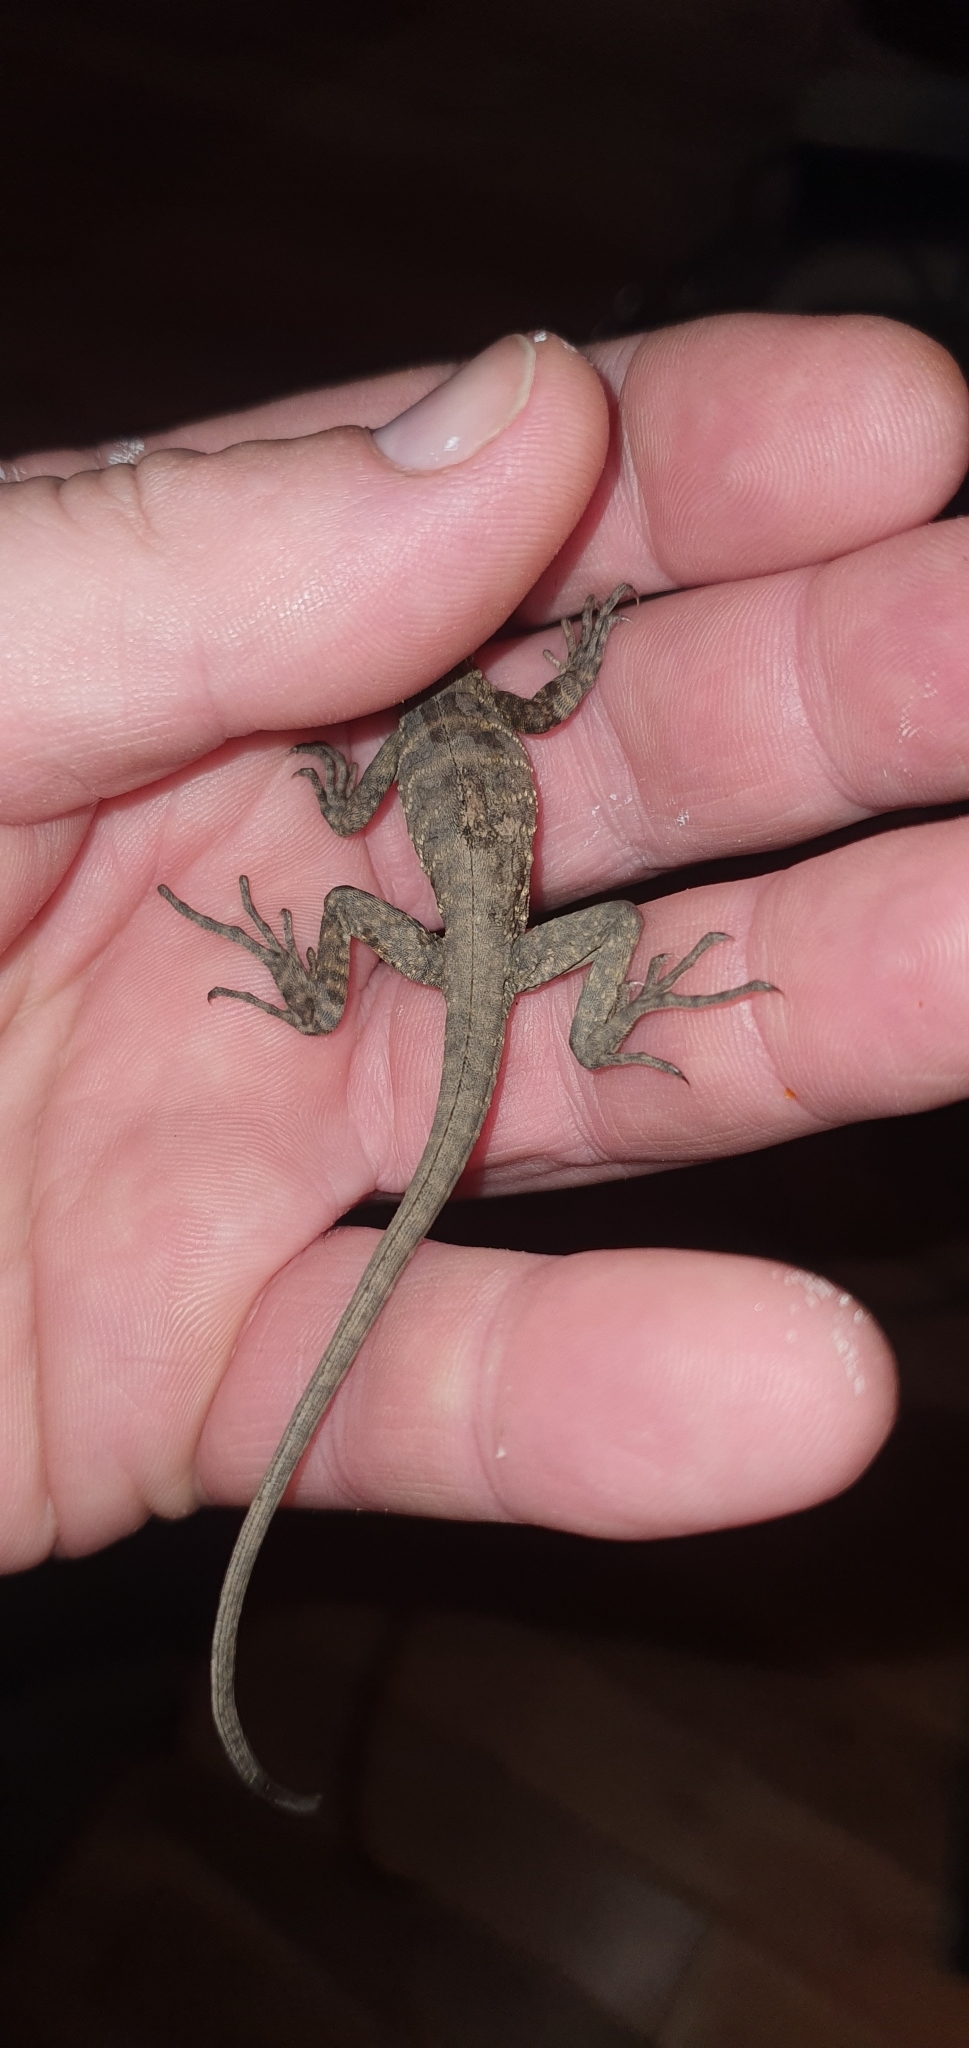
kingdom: Animalia
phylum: Chordata
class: Squamata
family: Agamidae
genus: Intellagama
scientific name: Intellagama lesueurii
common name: Eastern water dragon
